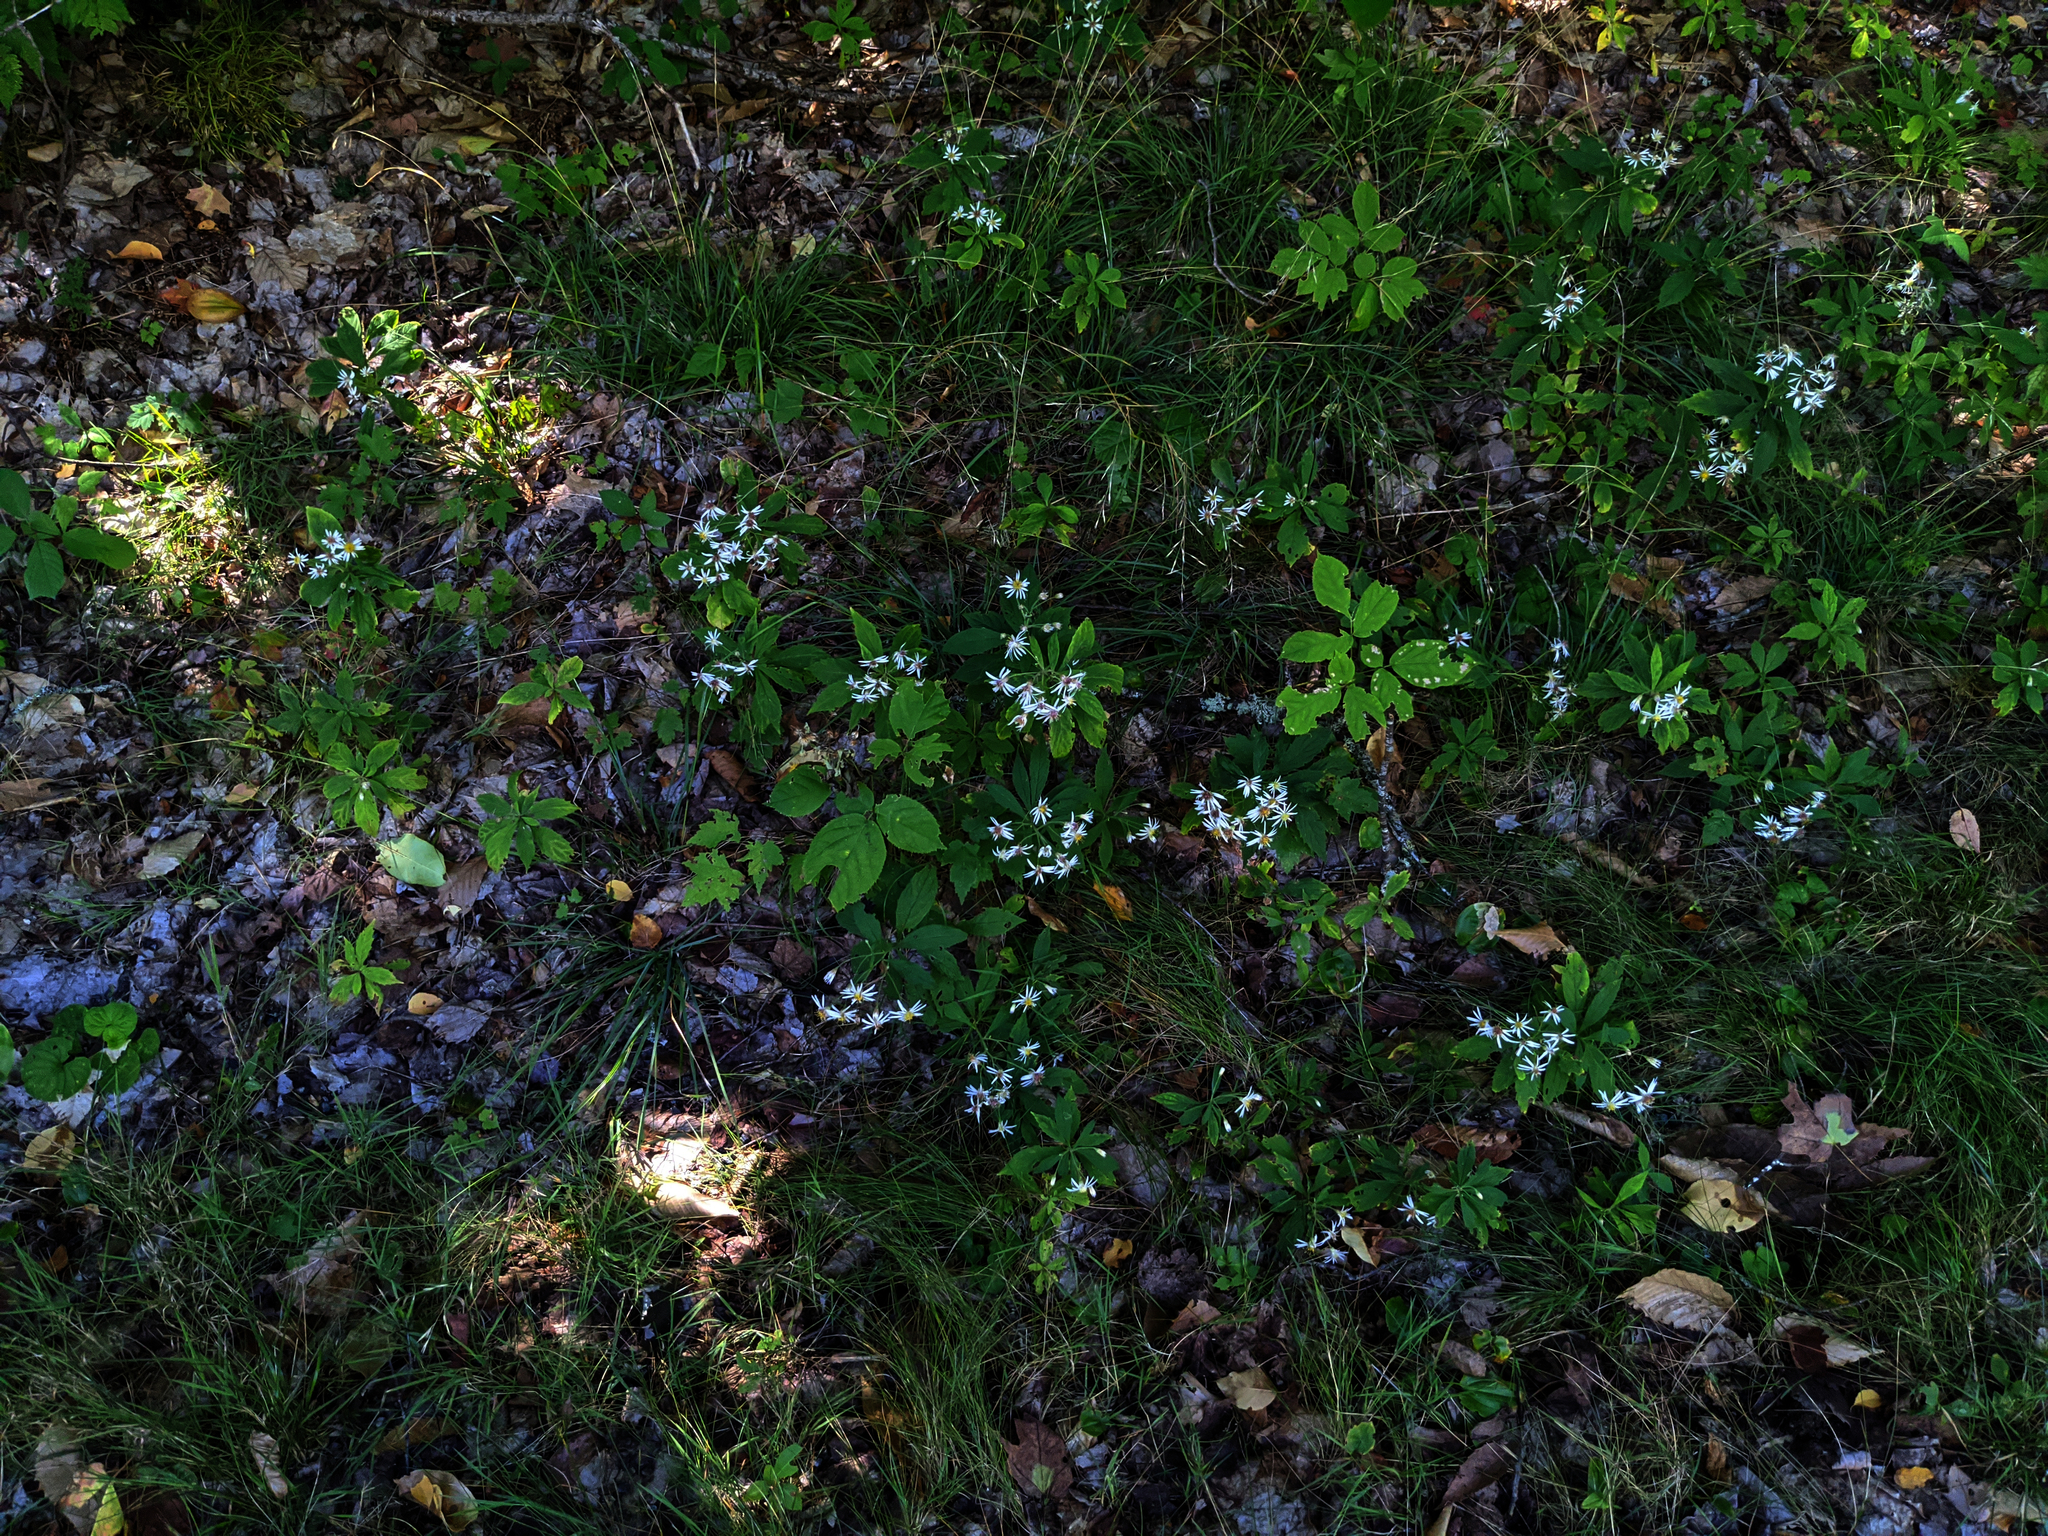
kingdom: Plantae
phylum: Tracheophyta
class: Magnoliopsida
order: Asterales
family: Asteraceae
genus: Oclemena
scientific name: Oclemena acuminata
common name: Mountain aster
